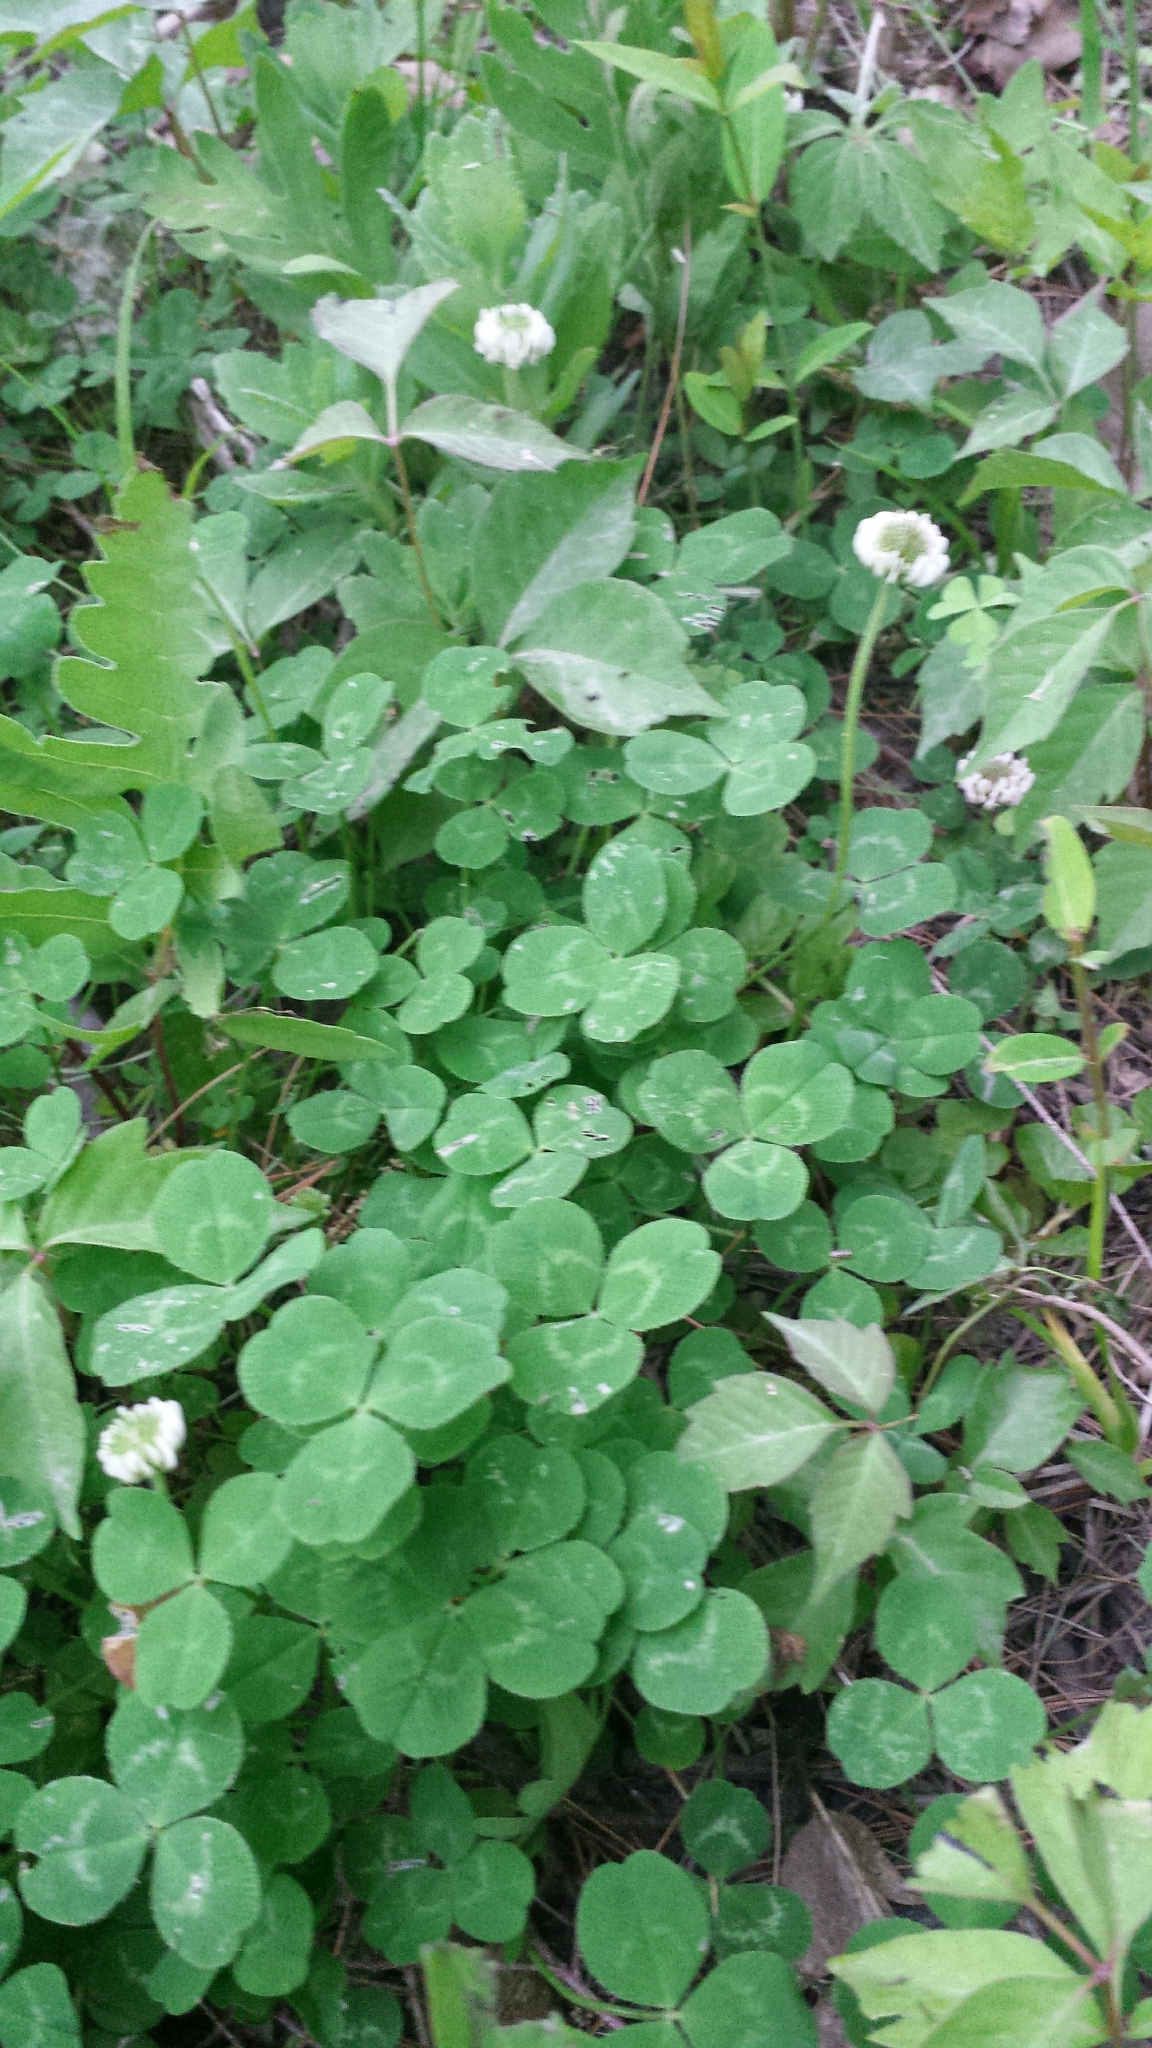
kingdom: Plantae
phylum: Tracheophyta
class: Magnoliopsida
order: Fabales
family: Fabaceae
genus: Trifolium
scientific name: Trifolium repens
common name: White clover
